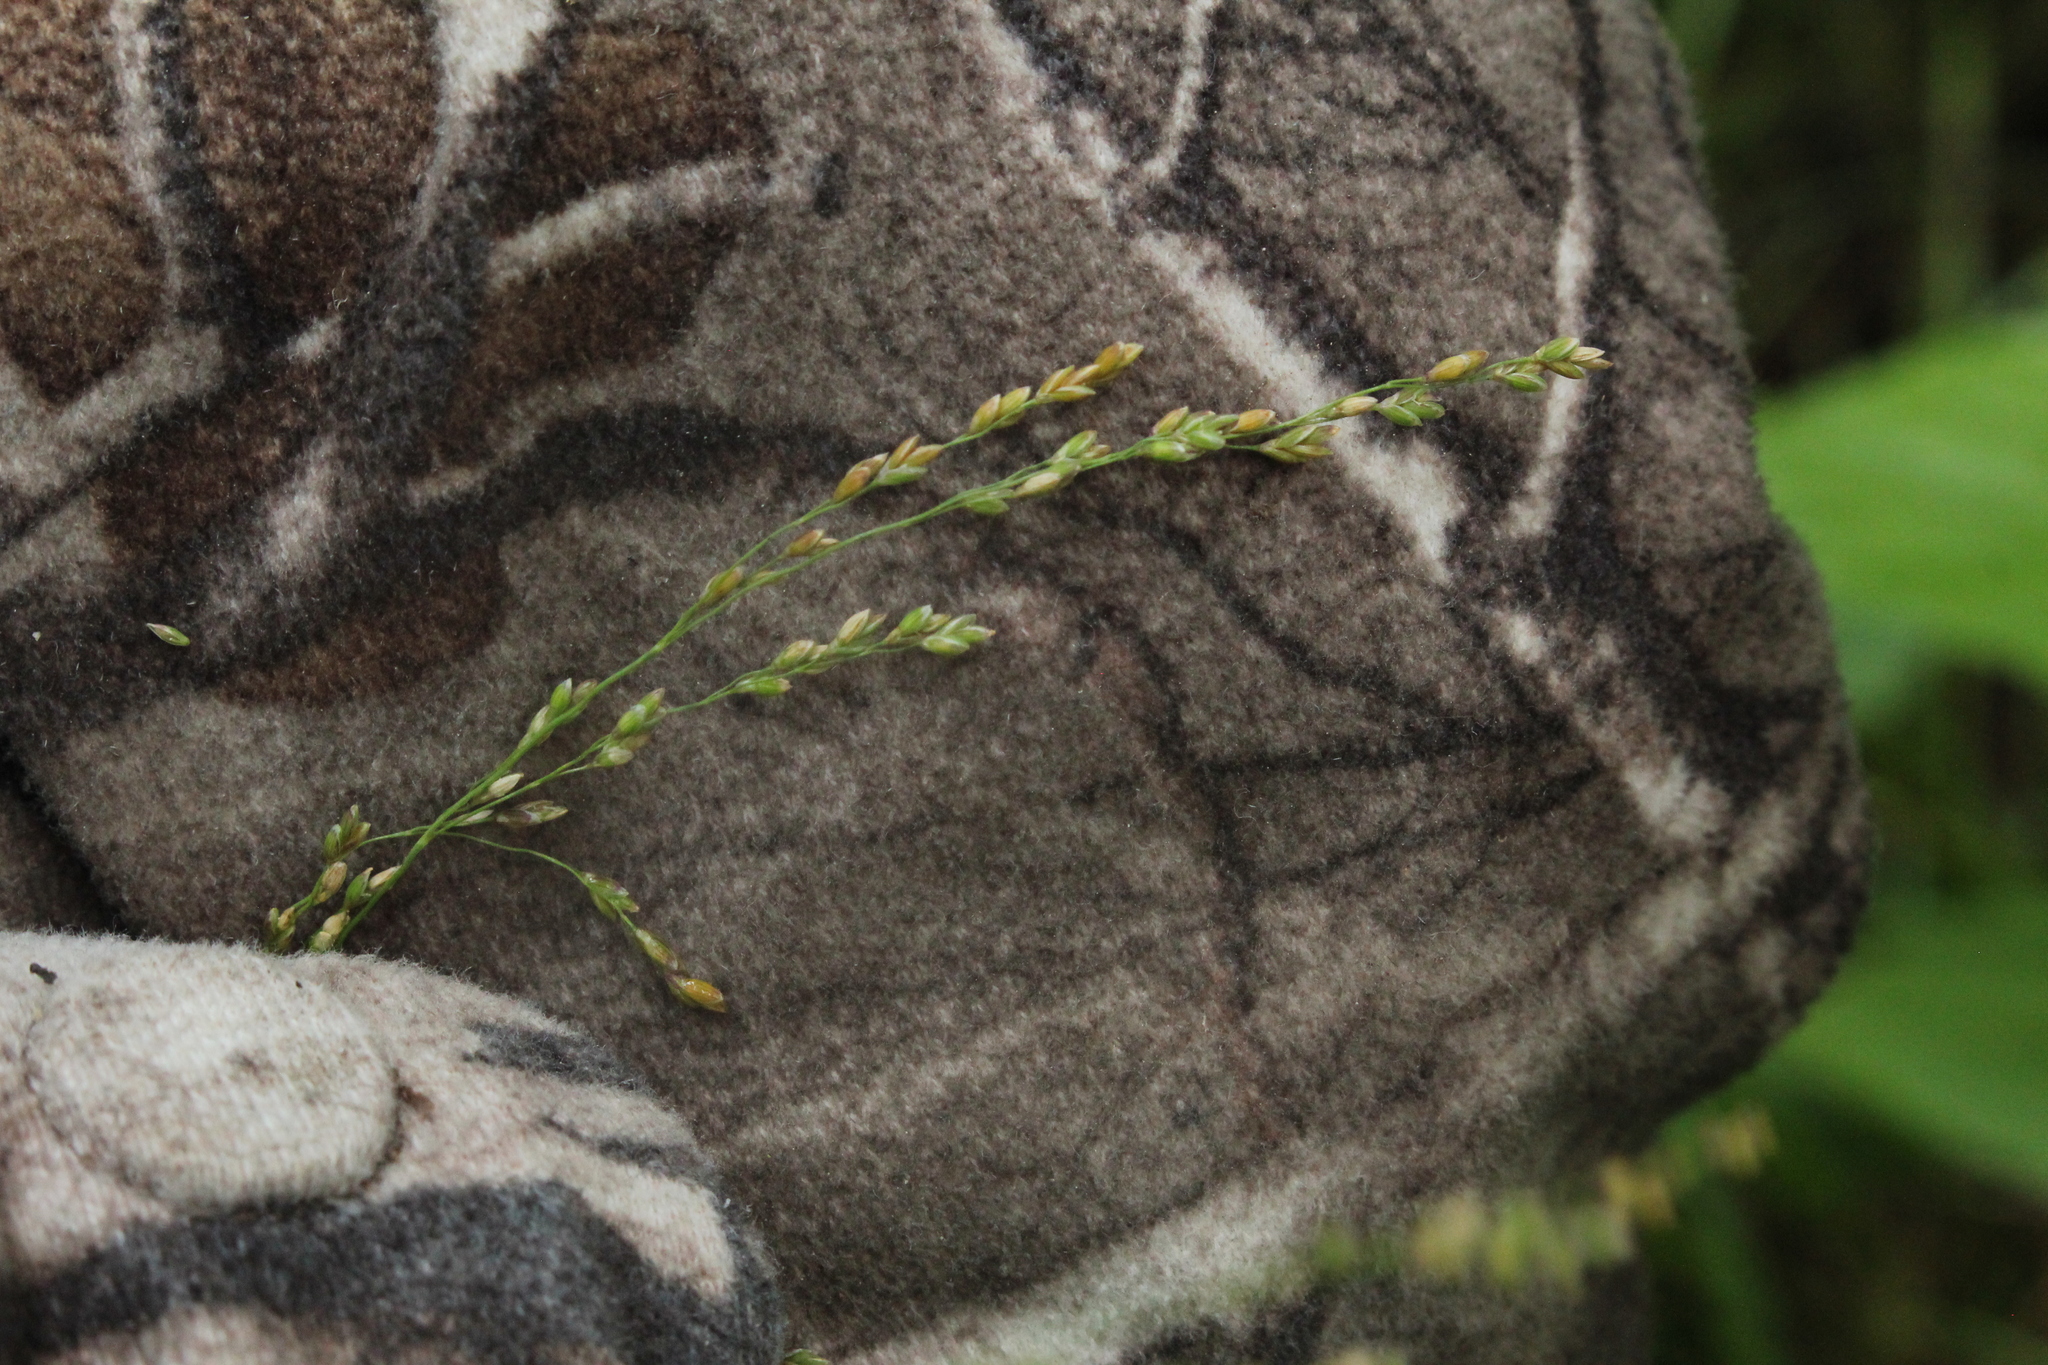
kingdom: Plantae
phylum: Tracheophyta
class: Liliopsida
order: Poales
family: Poaceae
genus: Glyceria
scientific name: Glyceria striata
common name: Fowl manna grass
